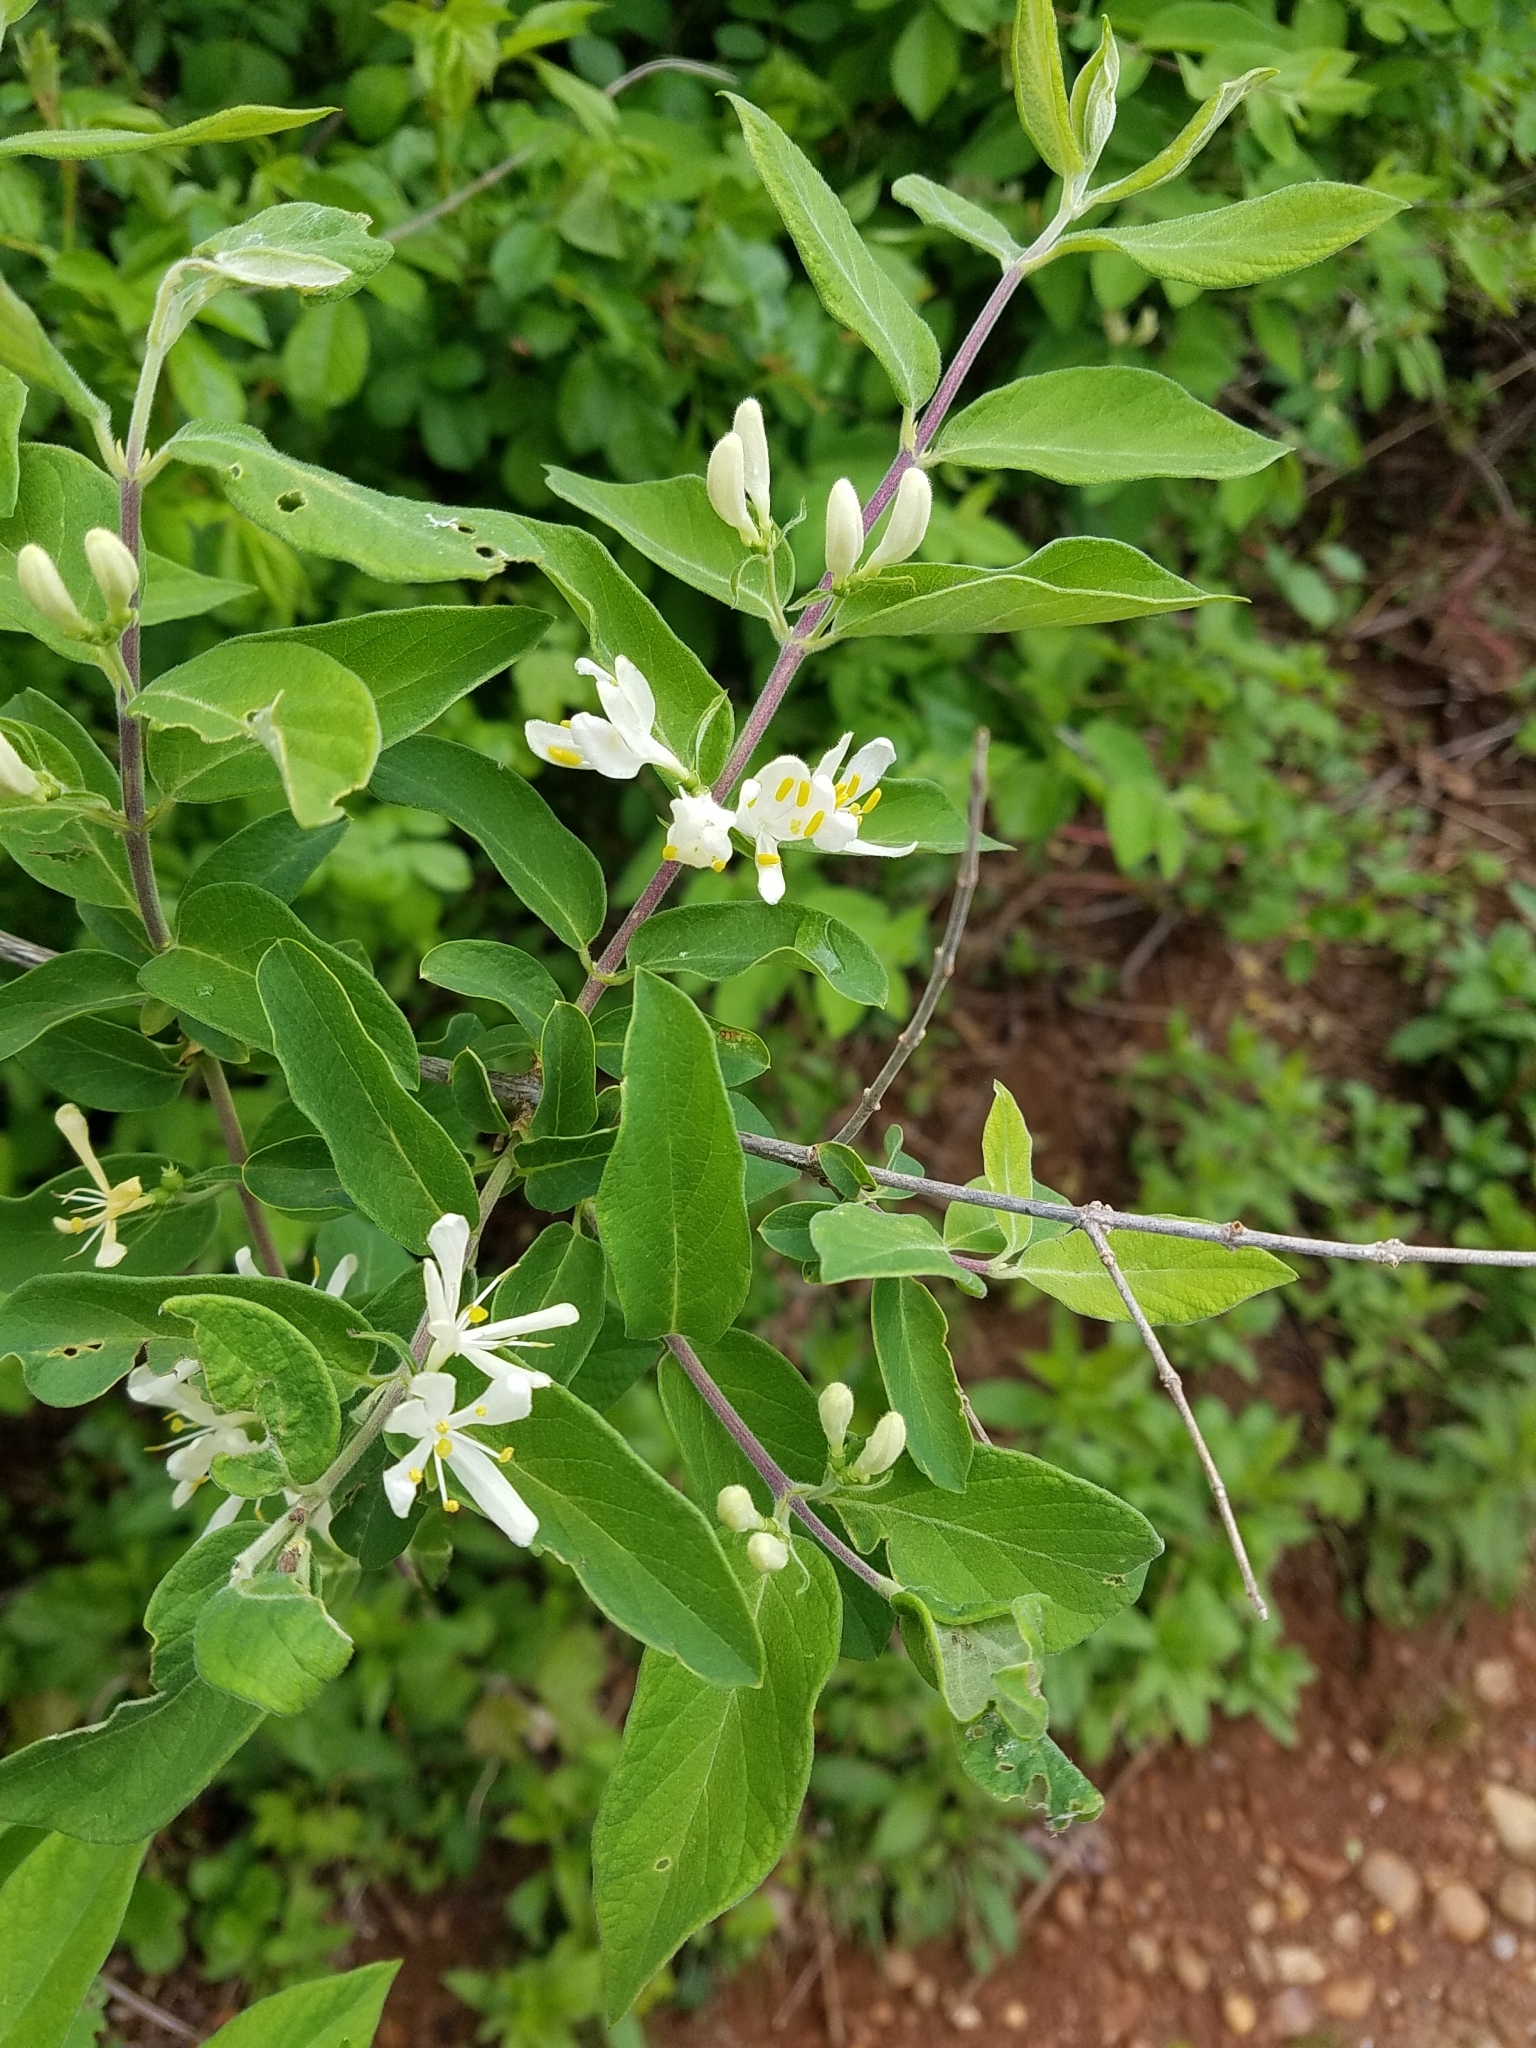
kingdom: Plantae
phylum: Tracheophyta
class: Magnoliopsida
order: Dipsacales
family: Caprifoliaceae
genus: Lonicera
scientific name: Lonicera morrowii
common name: Morrow's honeysuckle
